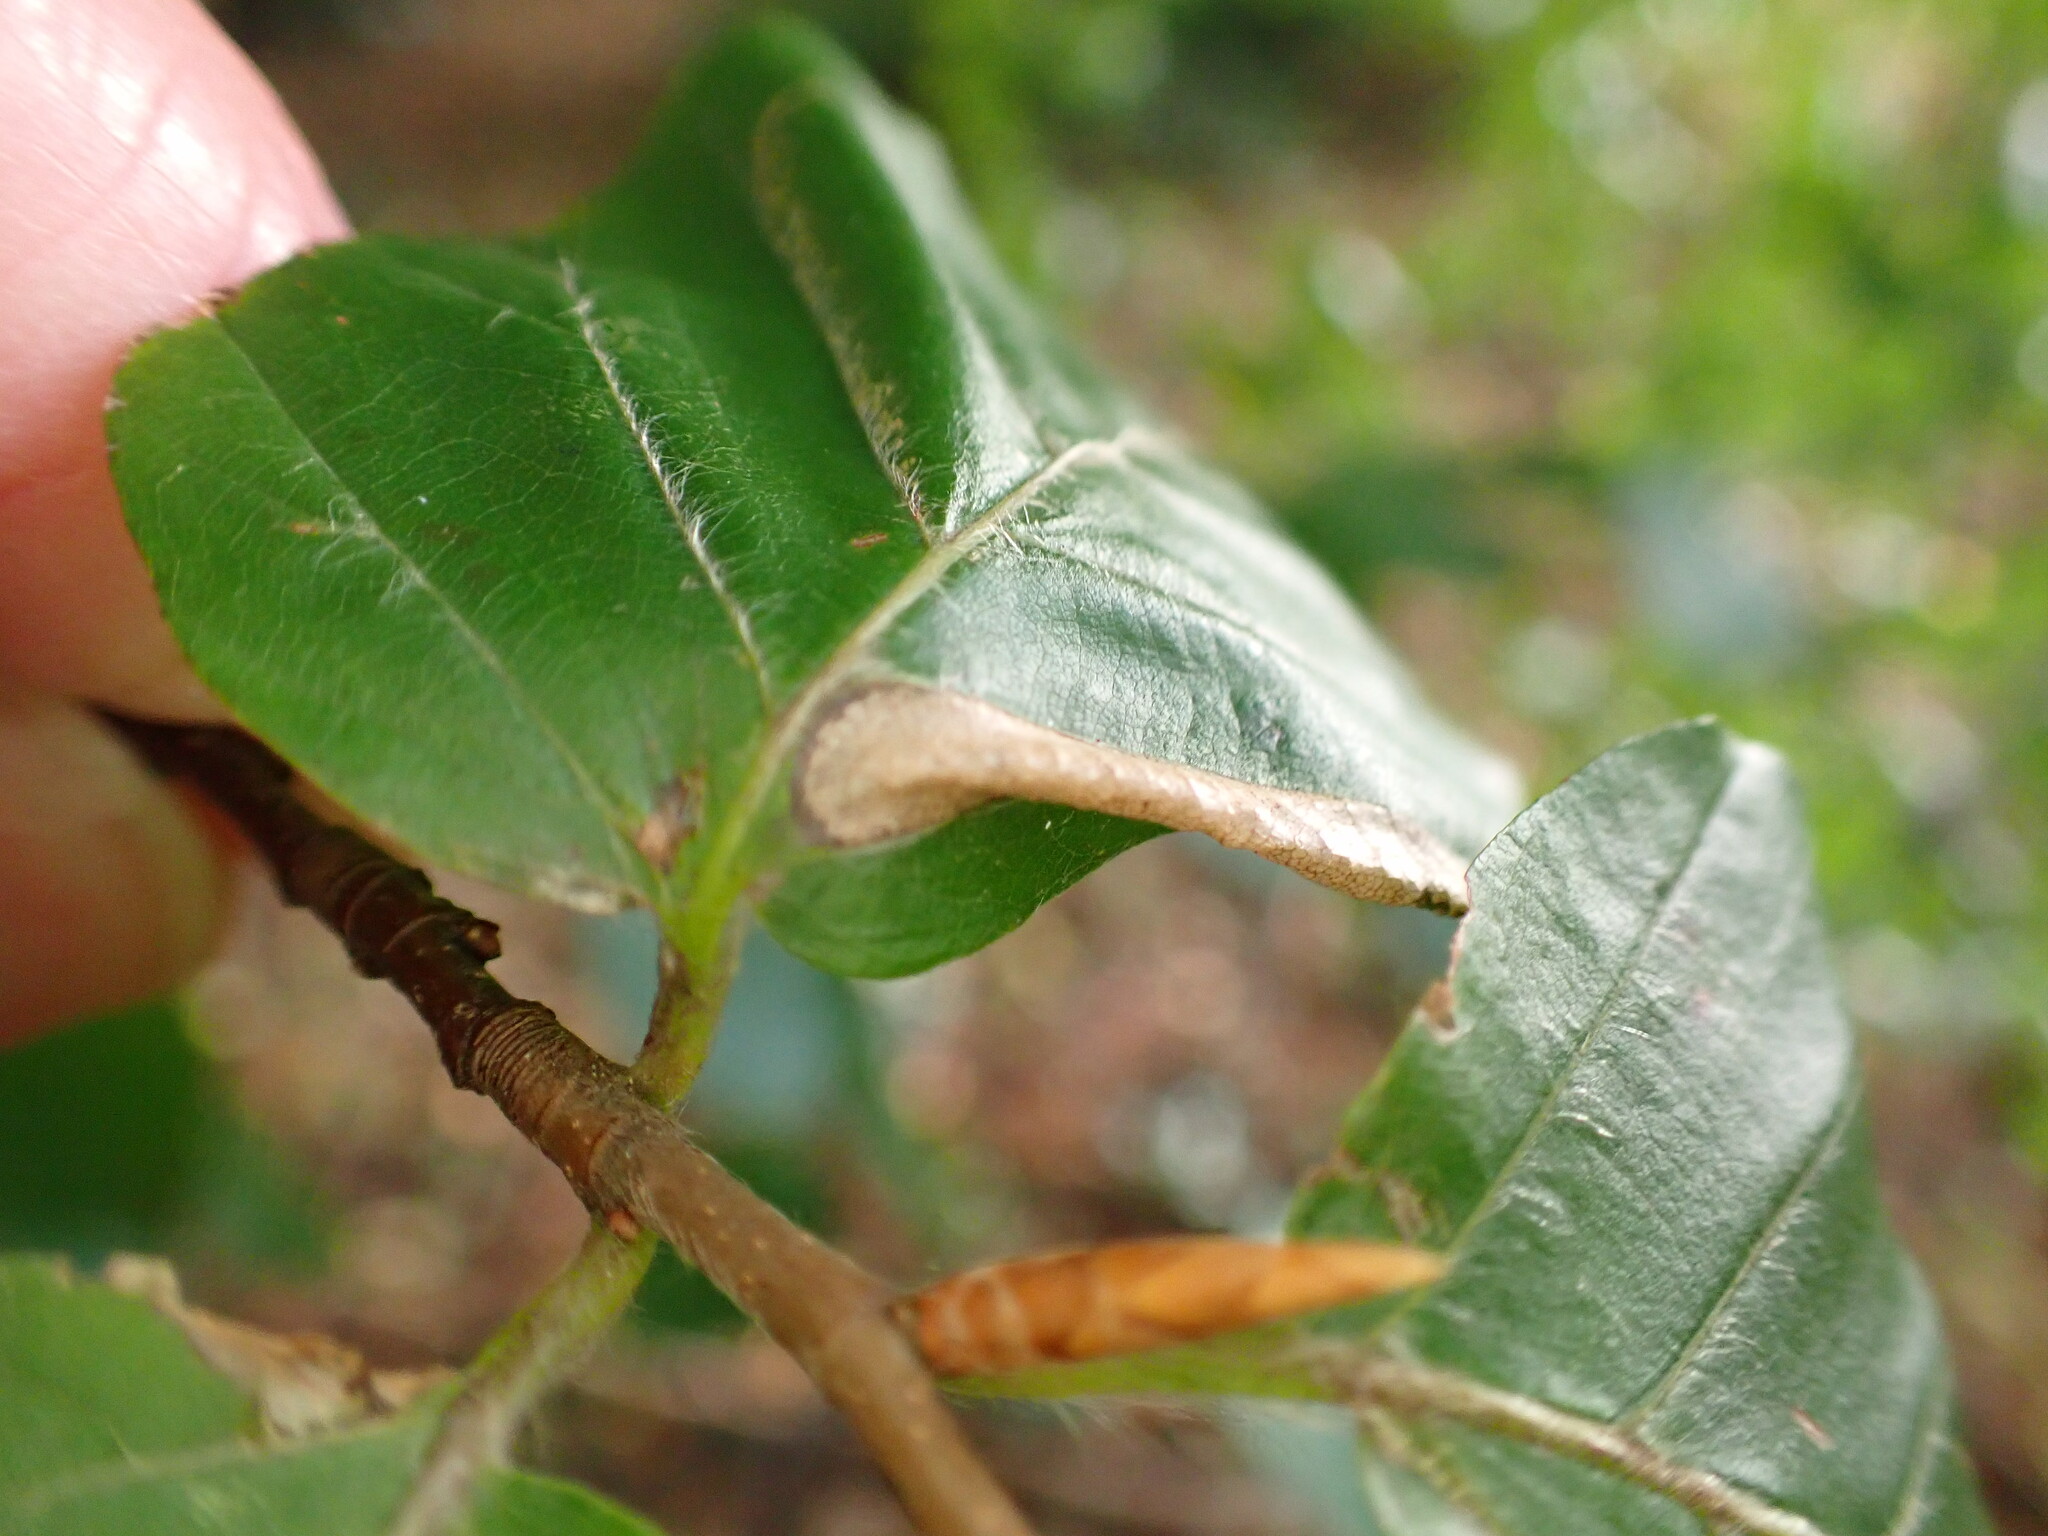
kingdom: Animalia
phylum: Arthropoda
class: Insecta
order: Lepidoptera
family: Gracillariidae
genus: Phyllonorycter
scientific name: Phyllonorycter maestingella
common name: Beech midget
